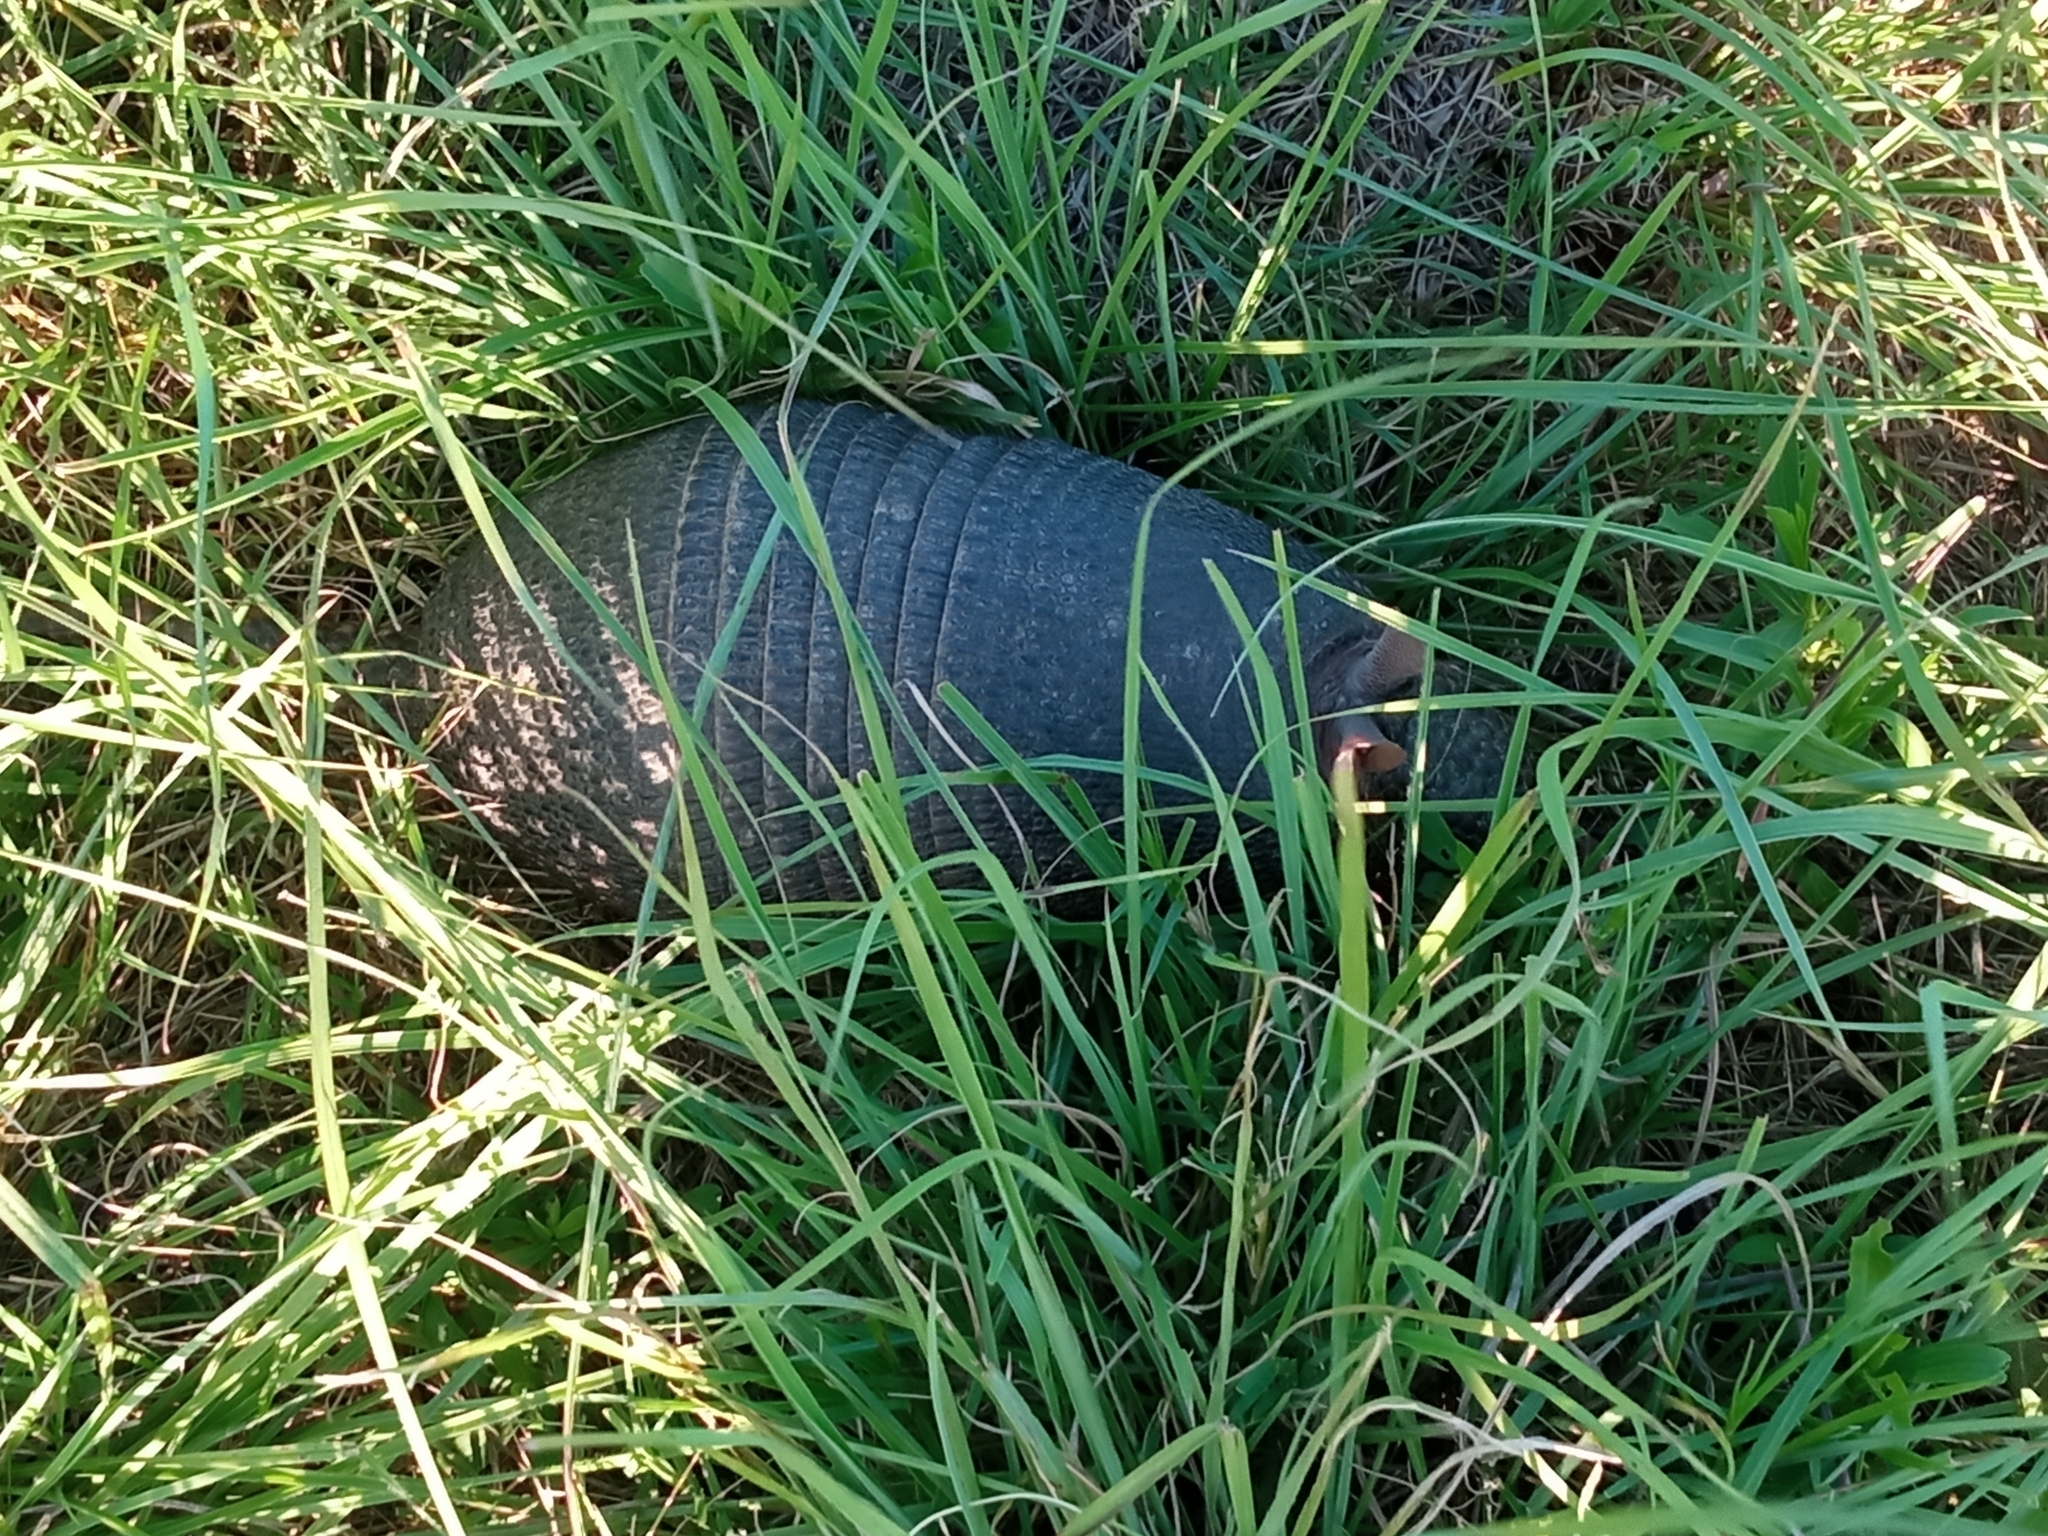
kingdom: Animalia
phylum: Chordata
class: Mammalia
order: Cingulata
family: Dasypodidae
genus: Dasypus
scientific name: Dasypus septemcinctus
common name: Seven-banded armadillo
